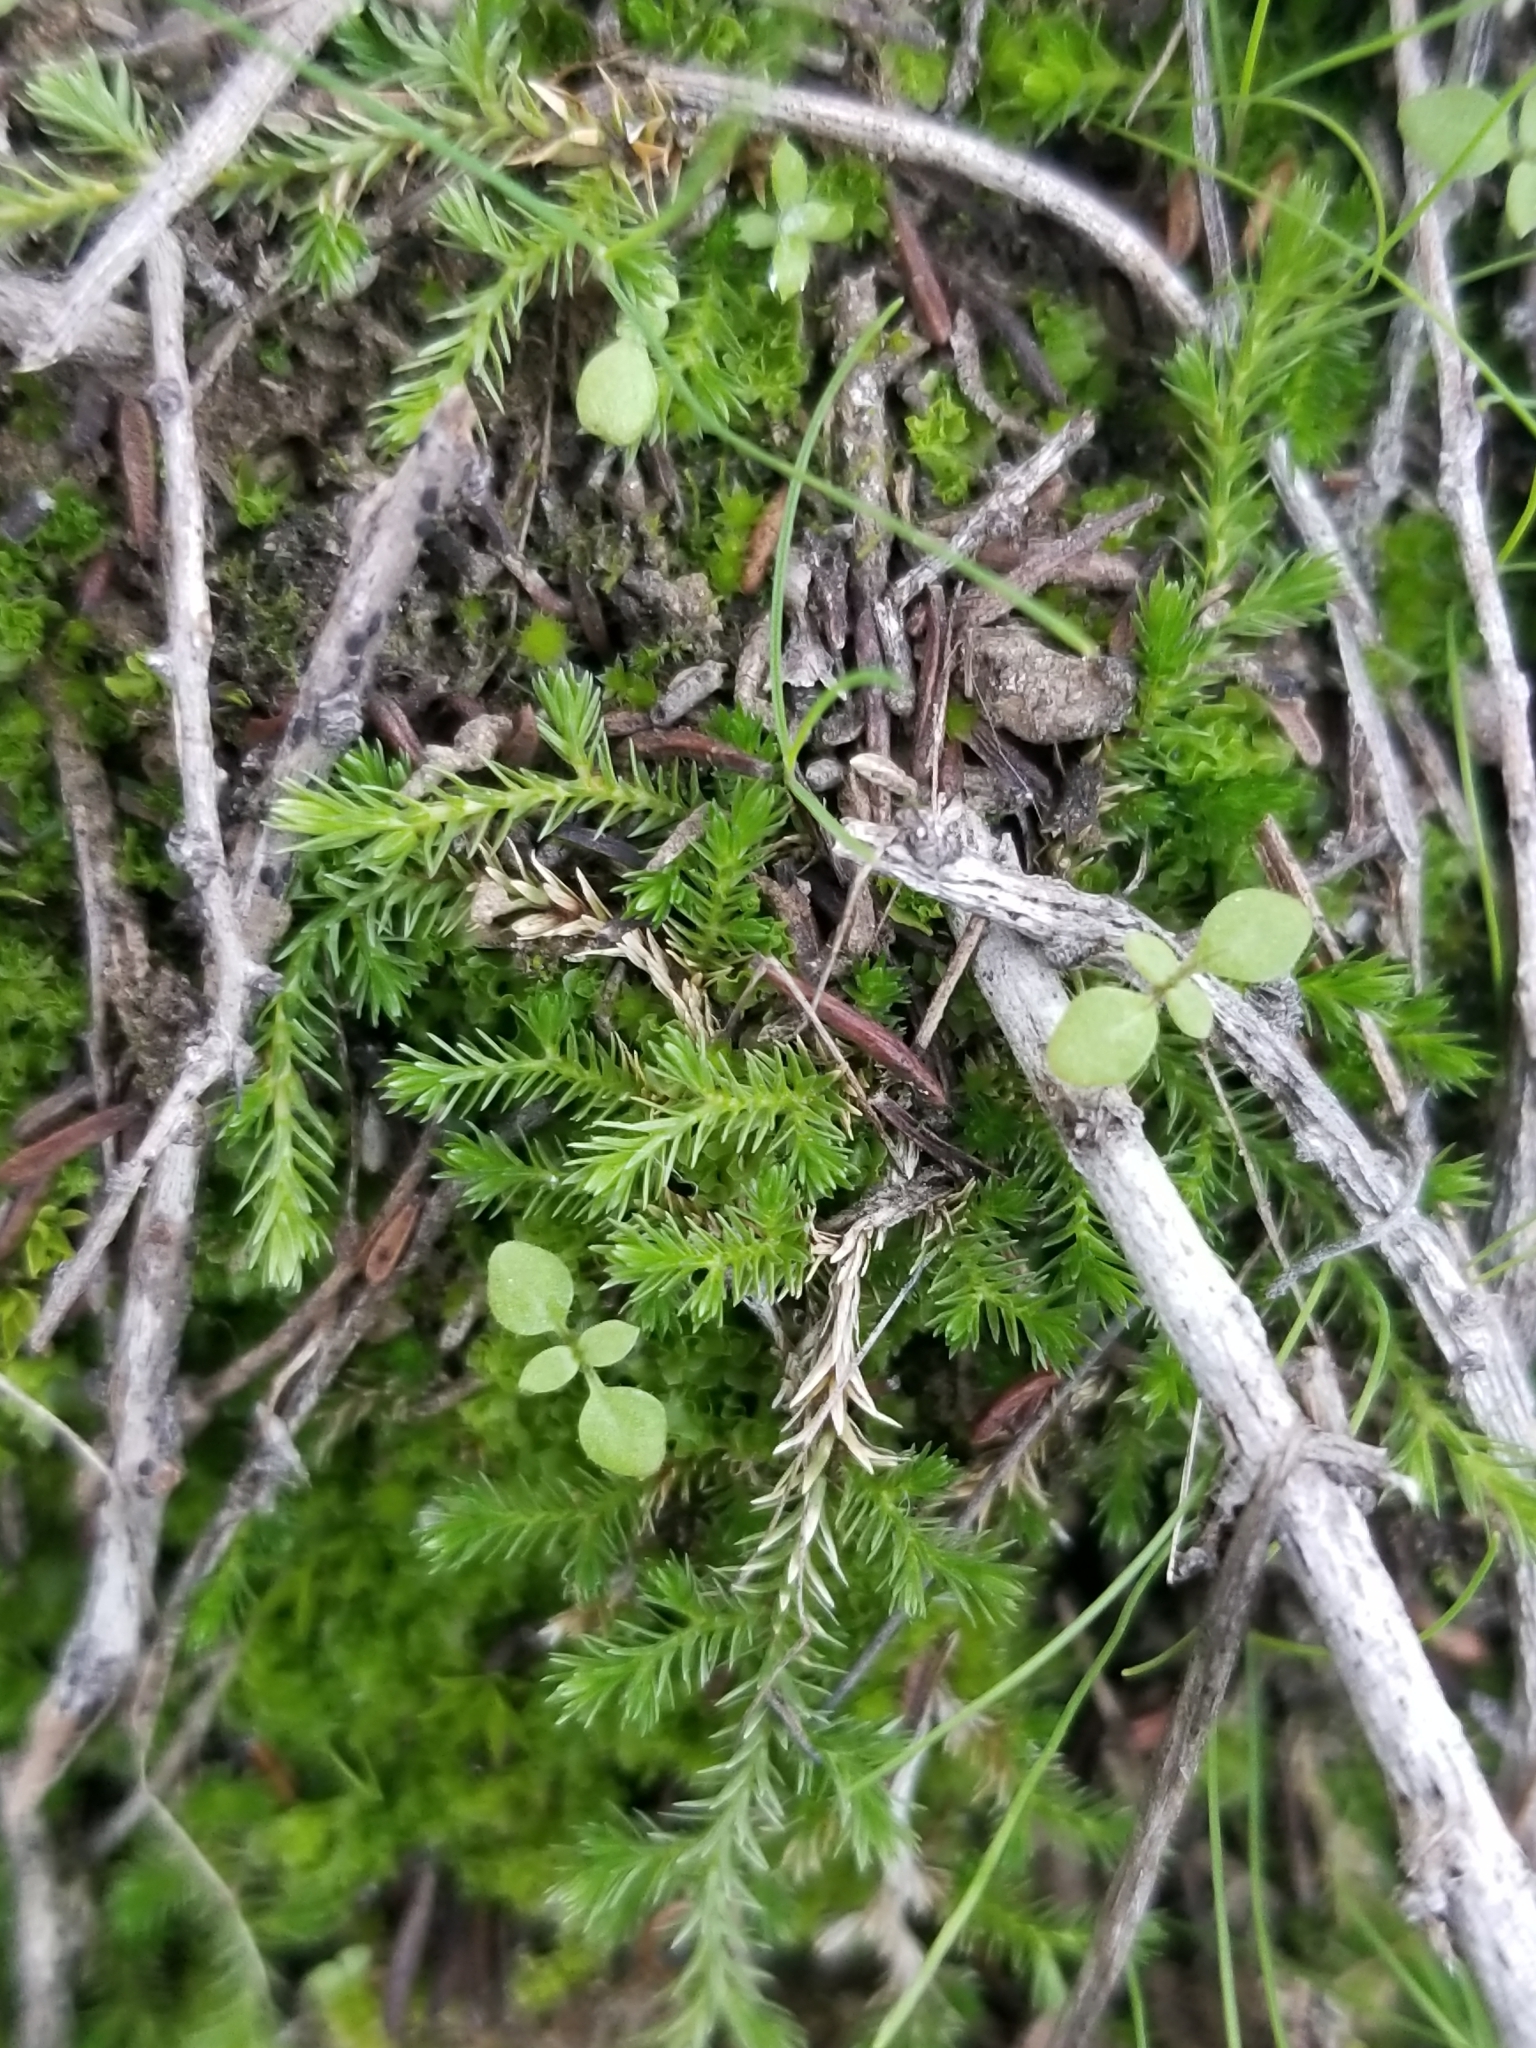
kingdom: Plantae
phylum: Tracheophyta
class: Lycopodiopsida
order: Selaginellales
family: Selaginellaceae
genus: Selaginella
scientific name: Selaginella cinerascens
